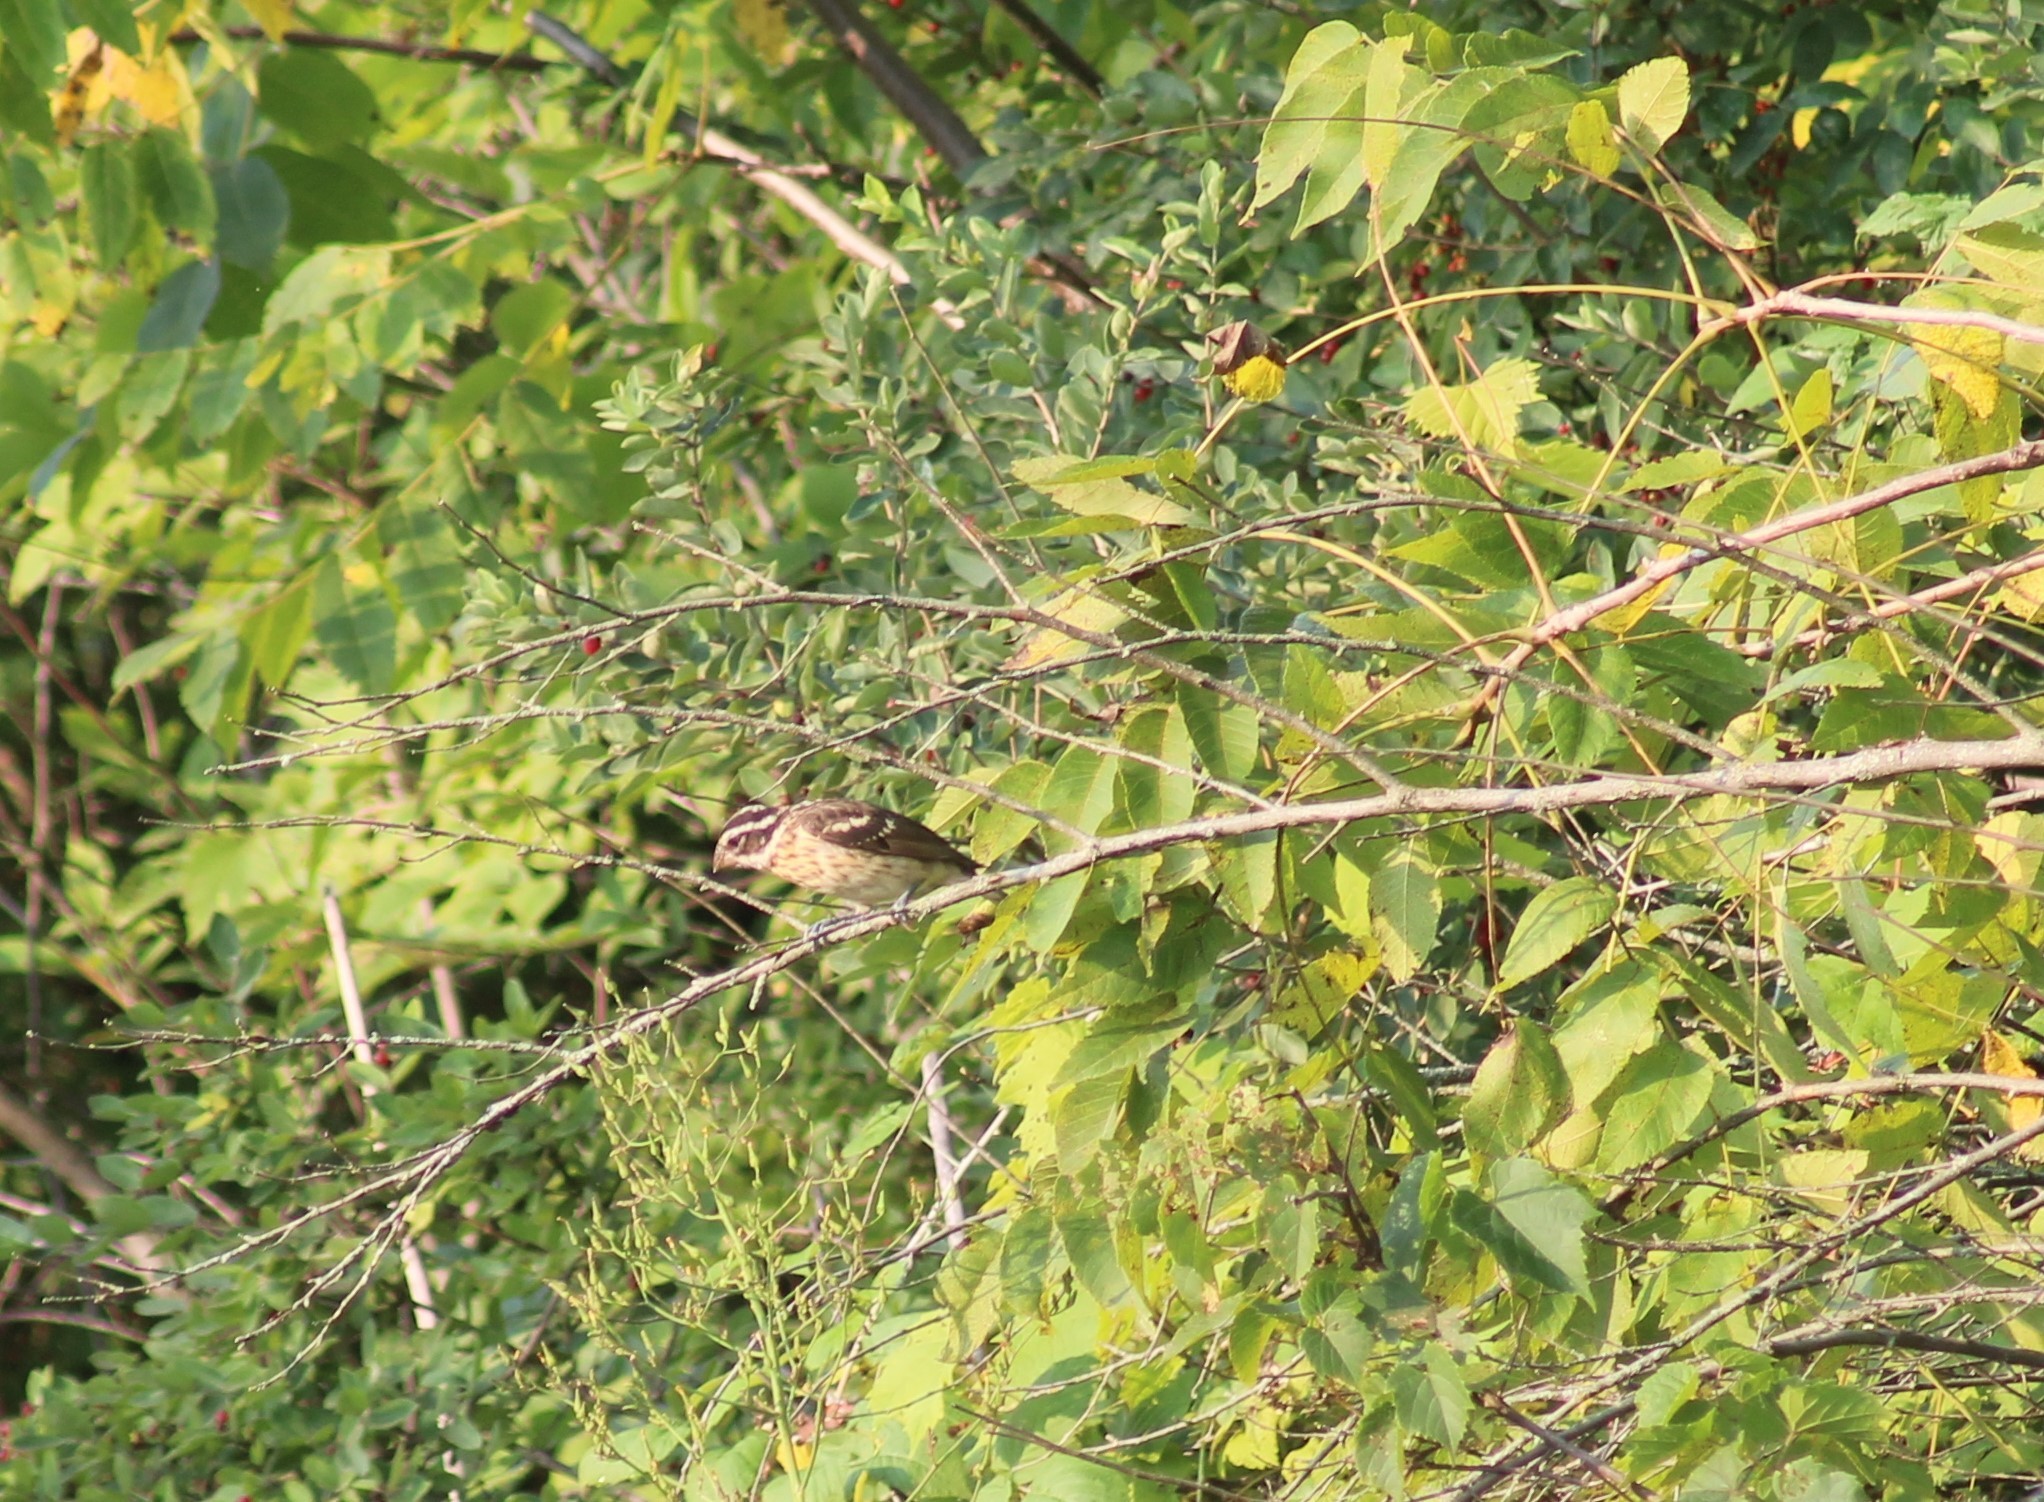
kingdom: Animalia
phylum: Chordata
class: Aves
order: Passeriformes
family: Cardinalidae
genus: Pheucticus
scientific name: Pheucticus ludovicianus
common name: Rose-breasted grosbeak
